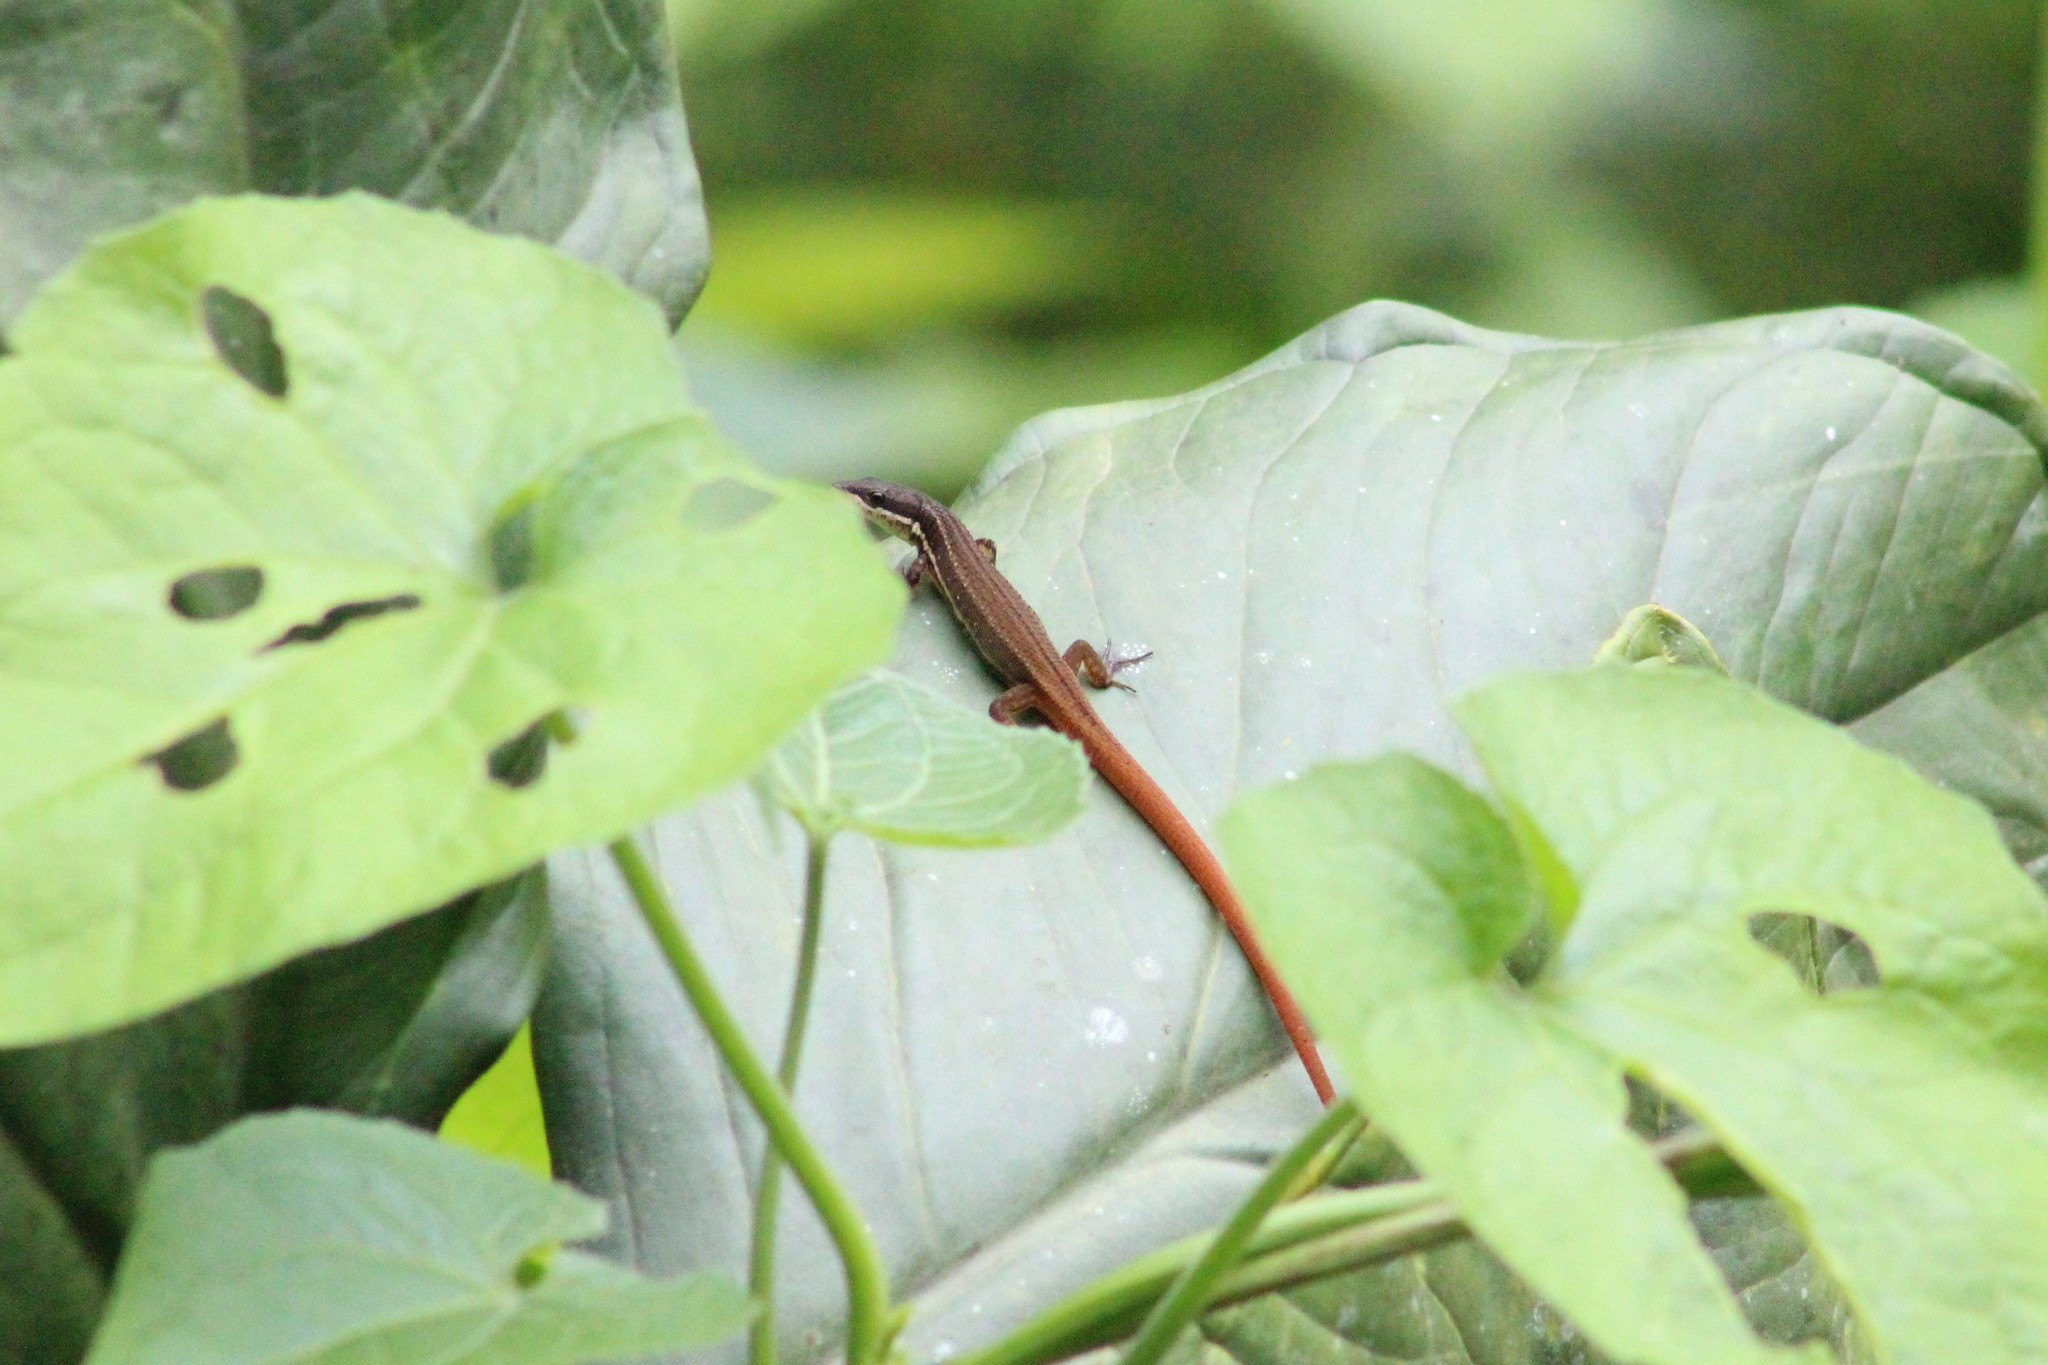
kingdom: Animalia
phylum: Chordata
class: Squamata
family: Gymnophthalmidae
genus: Cercosaura
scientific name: Cercosaura argulus
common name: White-lipped cercosaura
